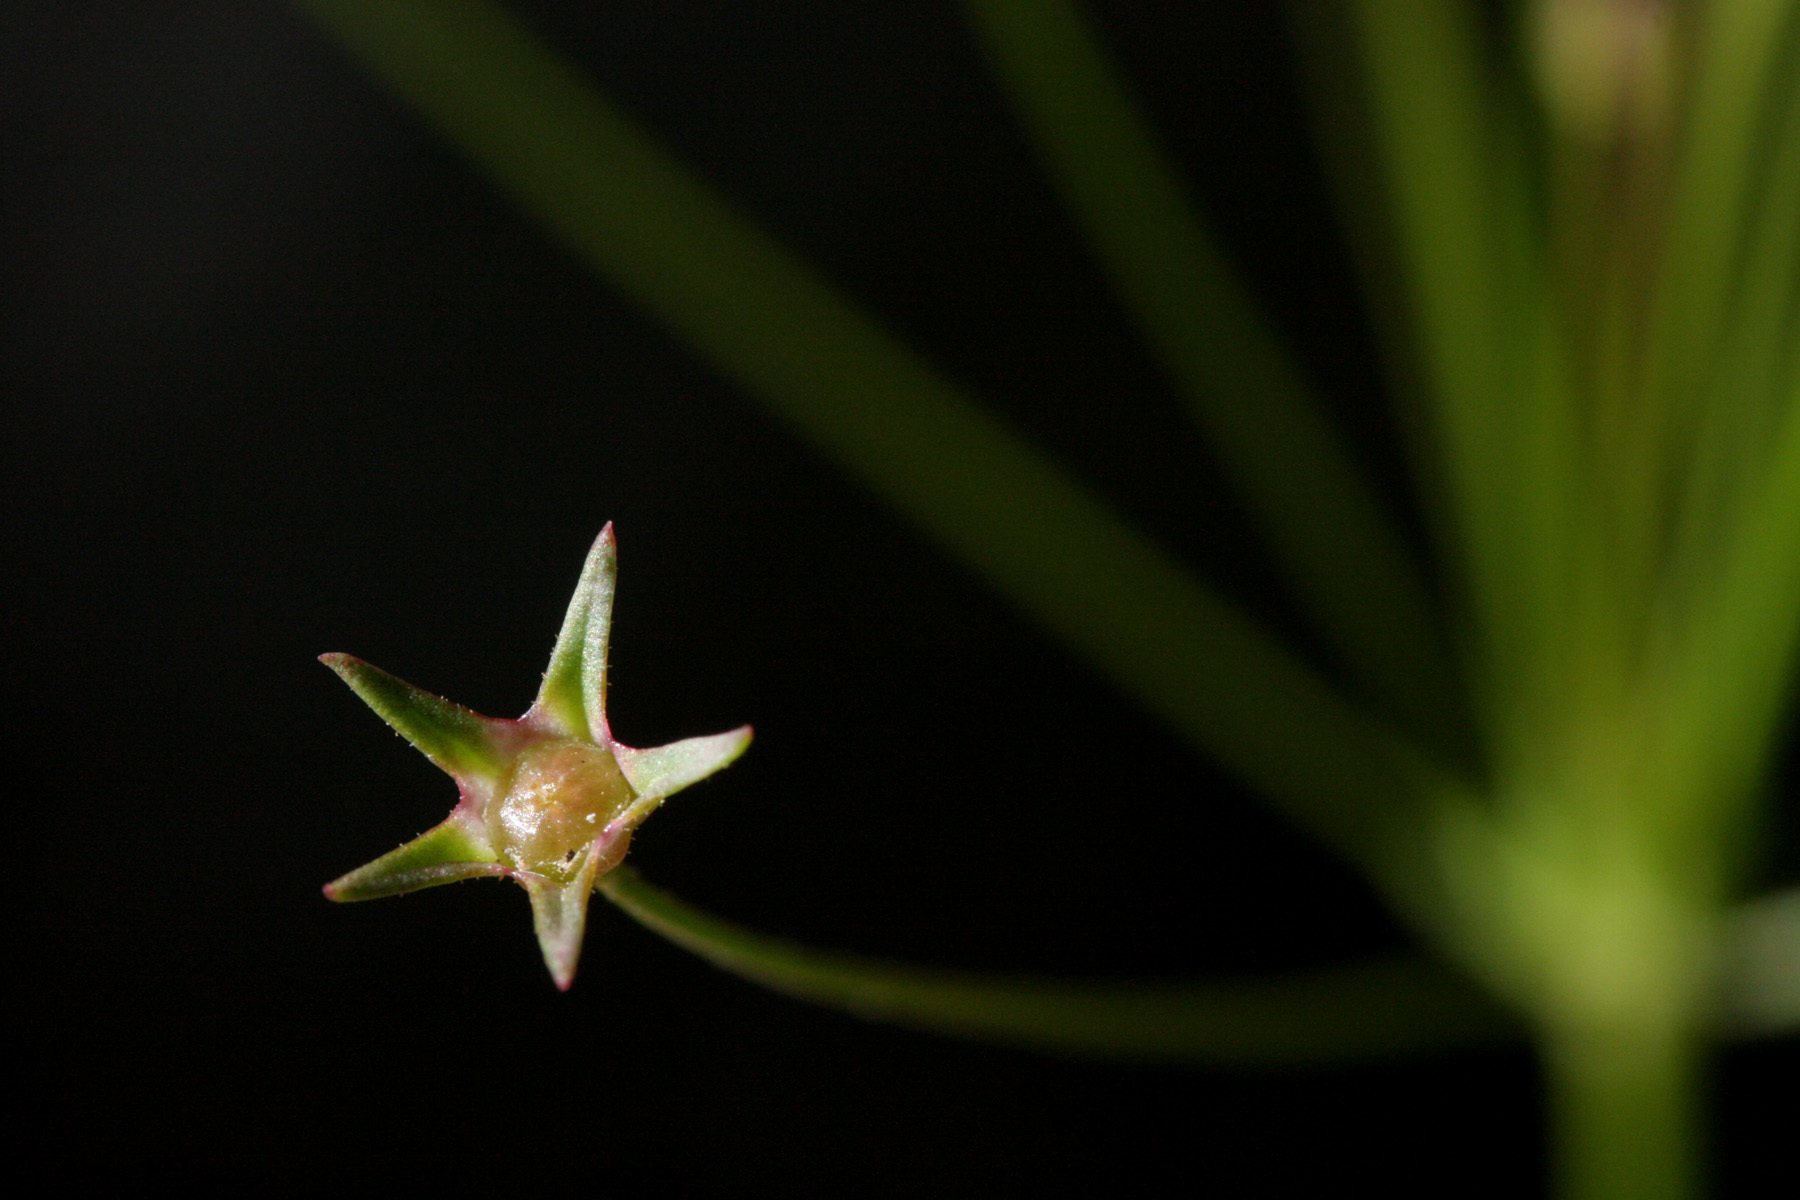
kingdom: Plantae
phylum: Tracheophyta
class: Magnoliopsida
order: Ericales
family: Primulaceae
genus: Androsace
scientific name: Androsace septentrionalis
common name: Hairy northern fairy-candelabra
